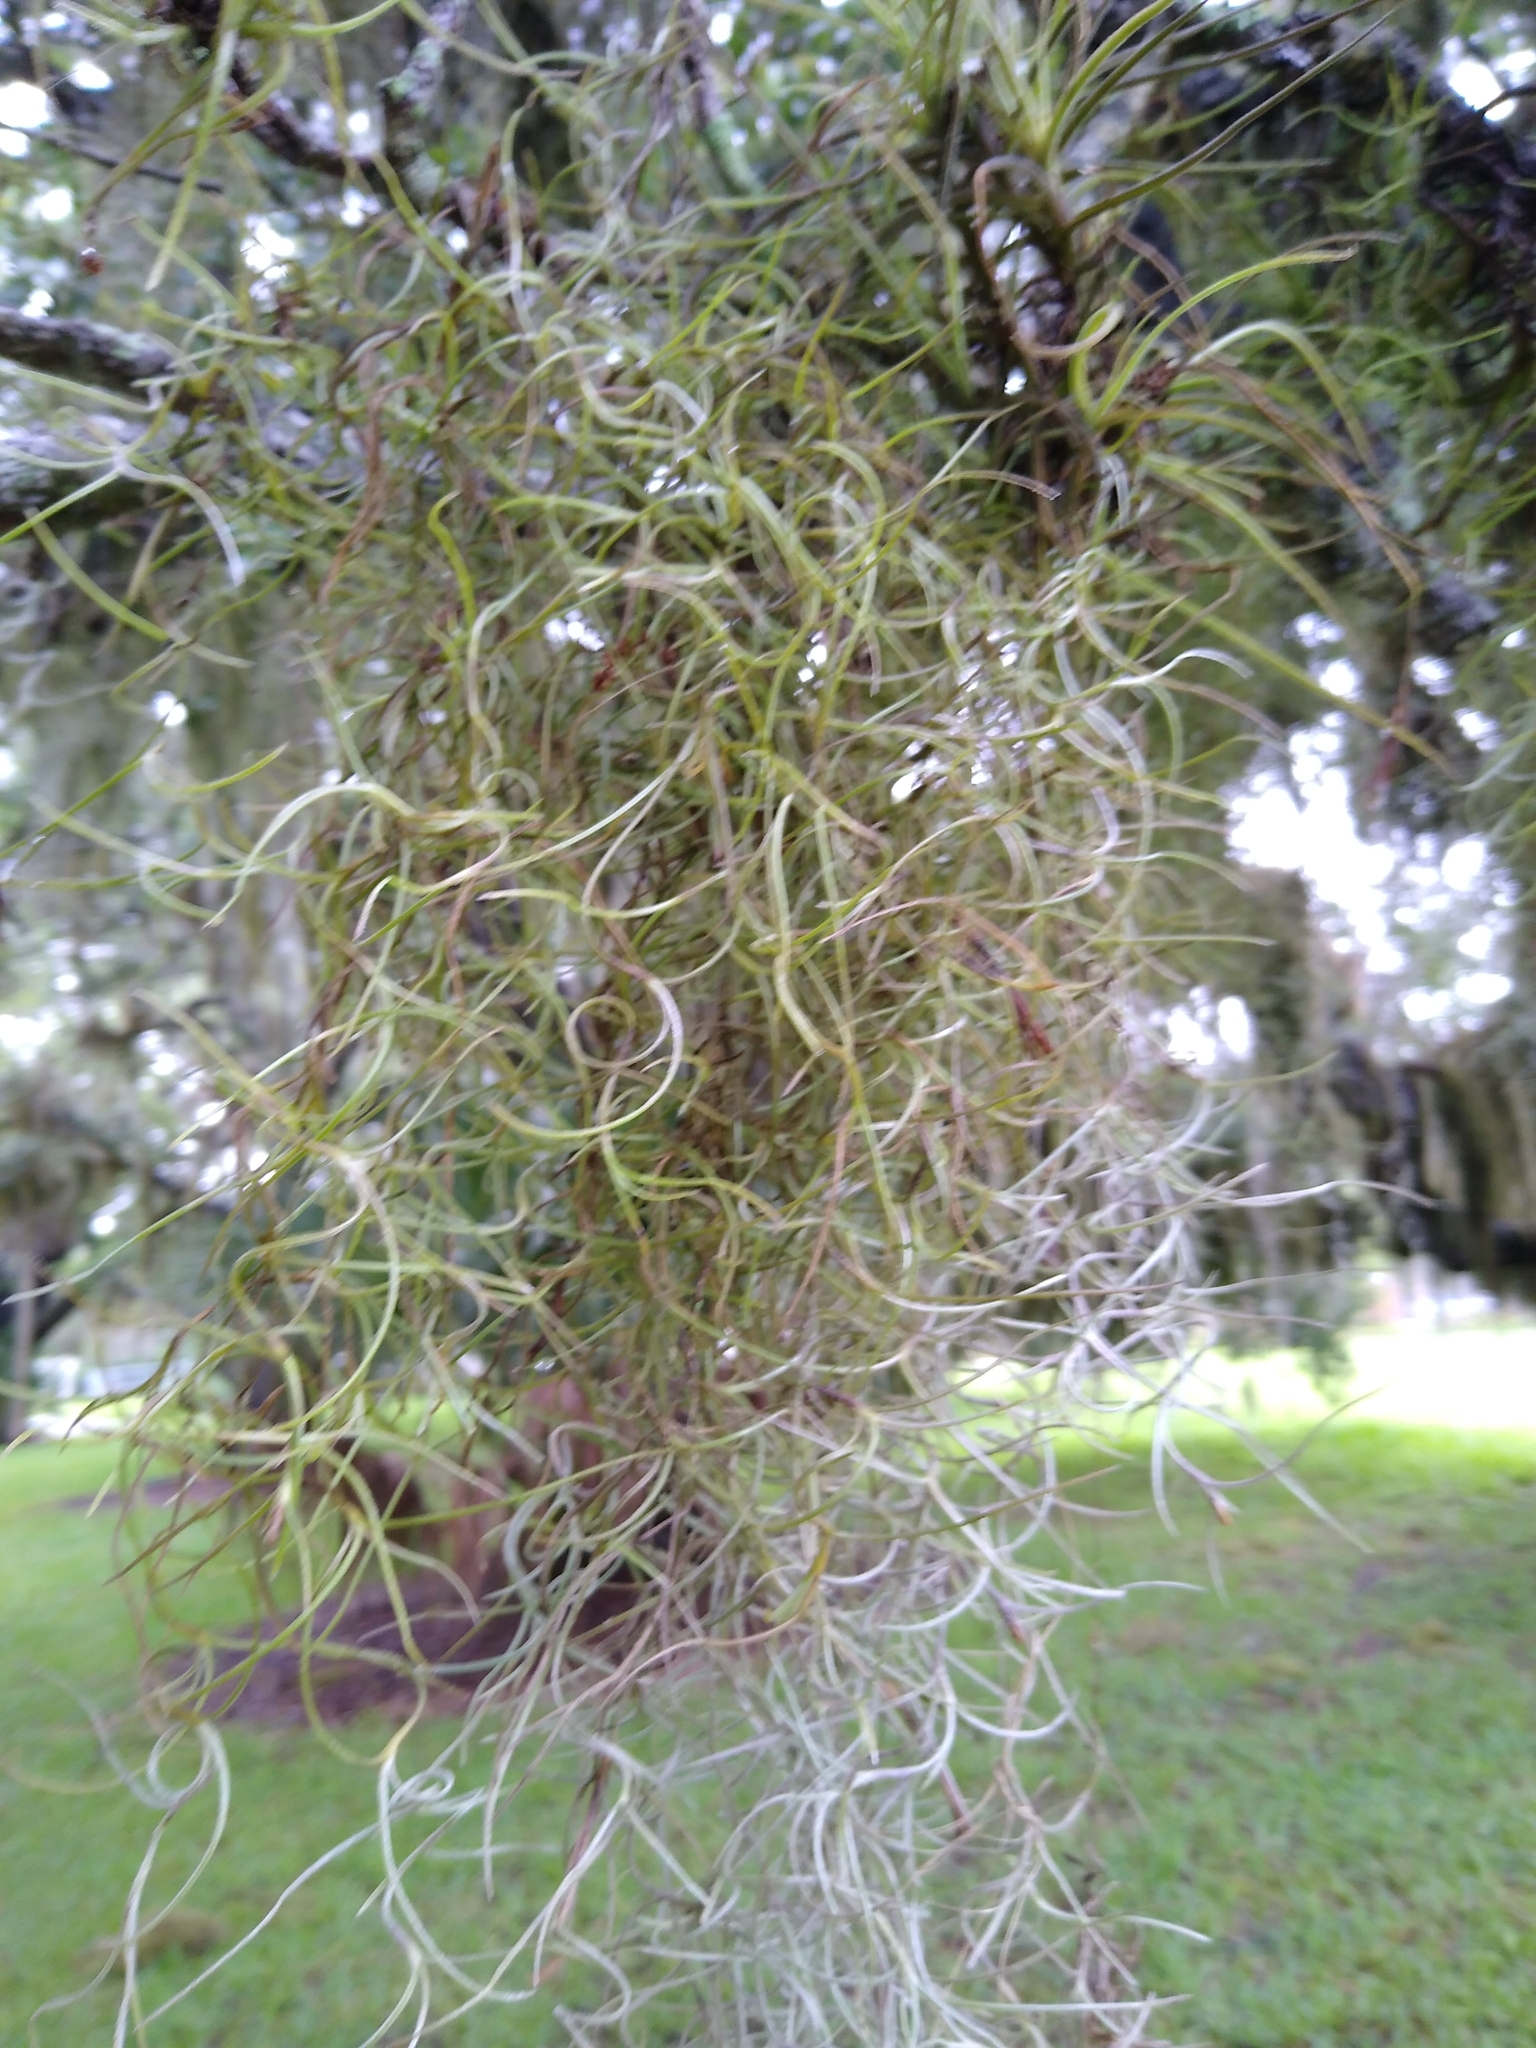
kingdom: Plantae
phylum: Tracheophyta
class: Liliopsida
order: Poales
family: Bromeliaceae
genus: Tillandsia
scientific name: Tillandsia usneoides
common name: Spanish moss
